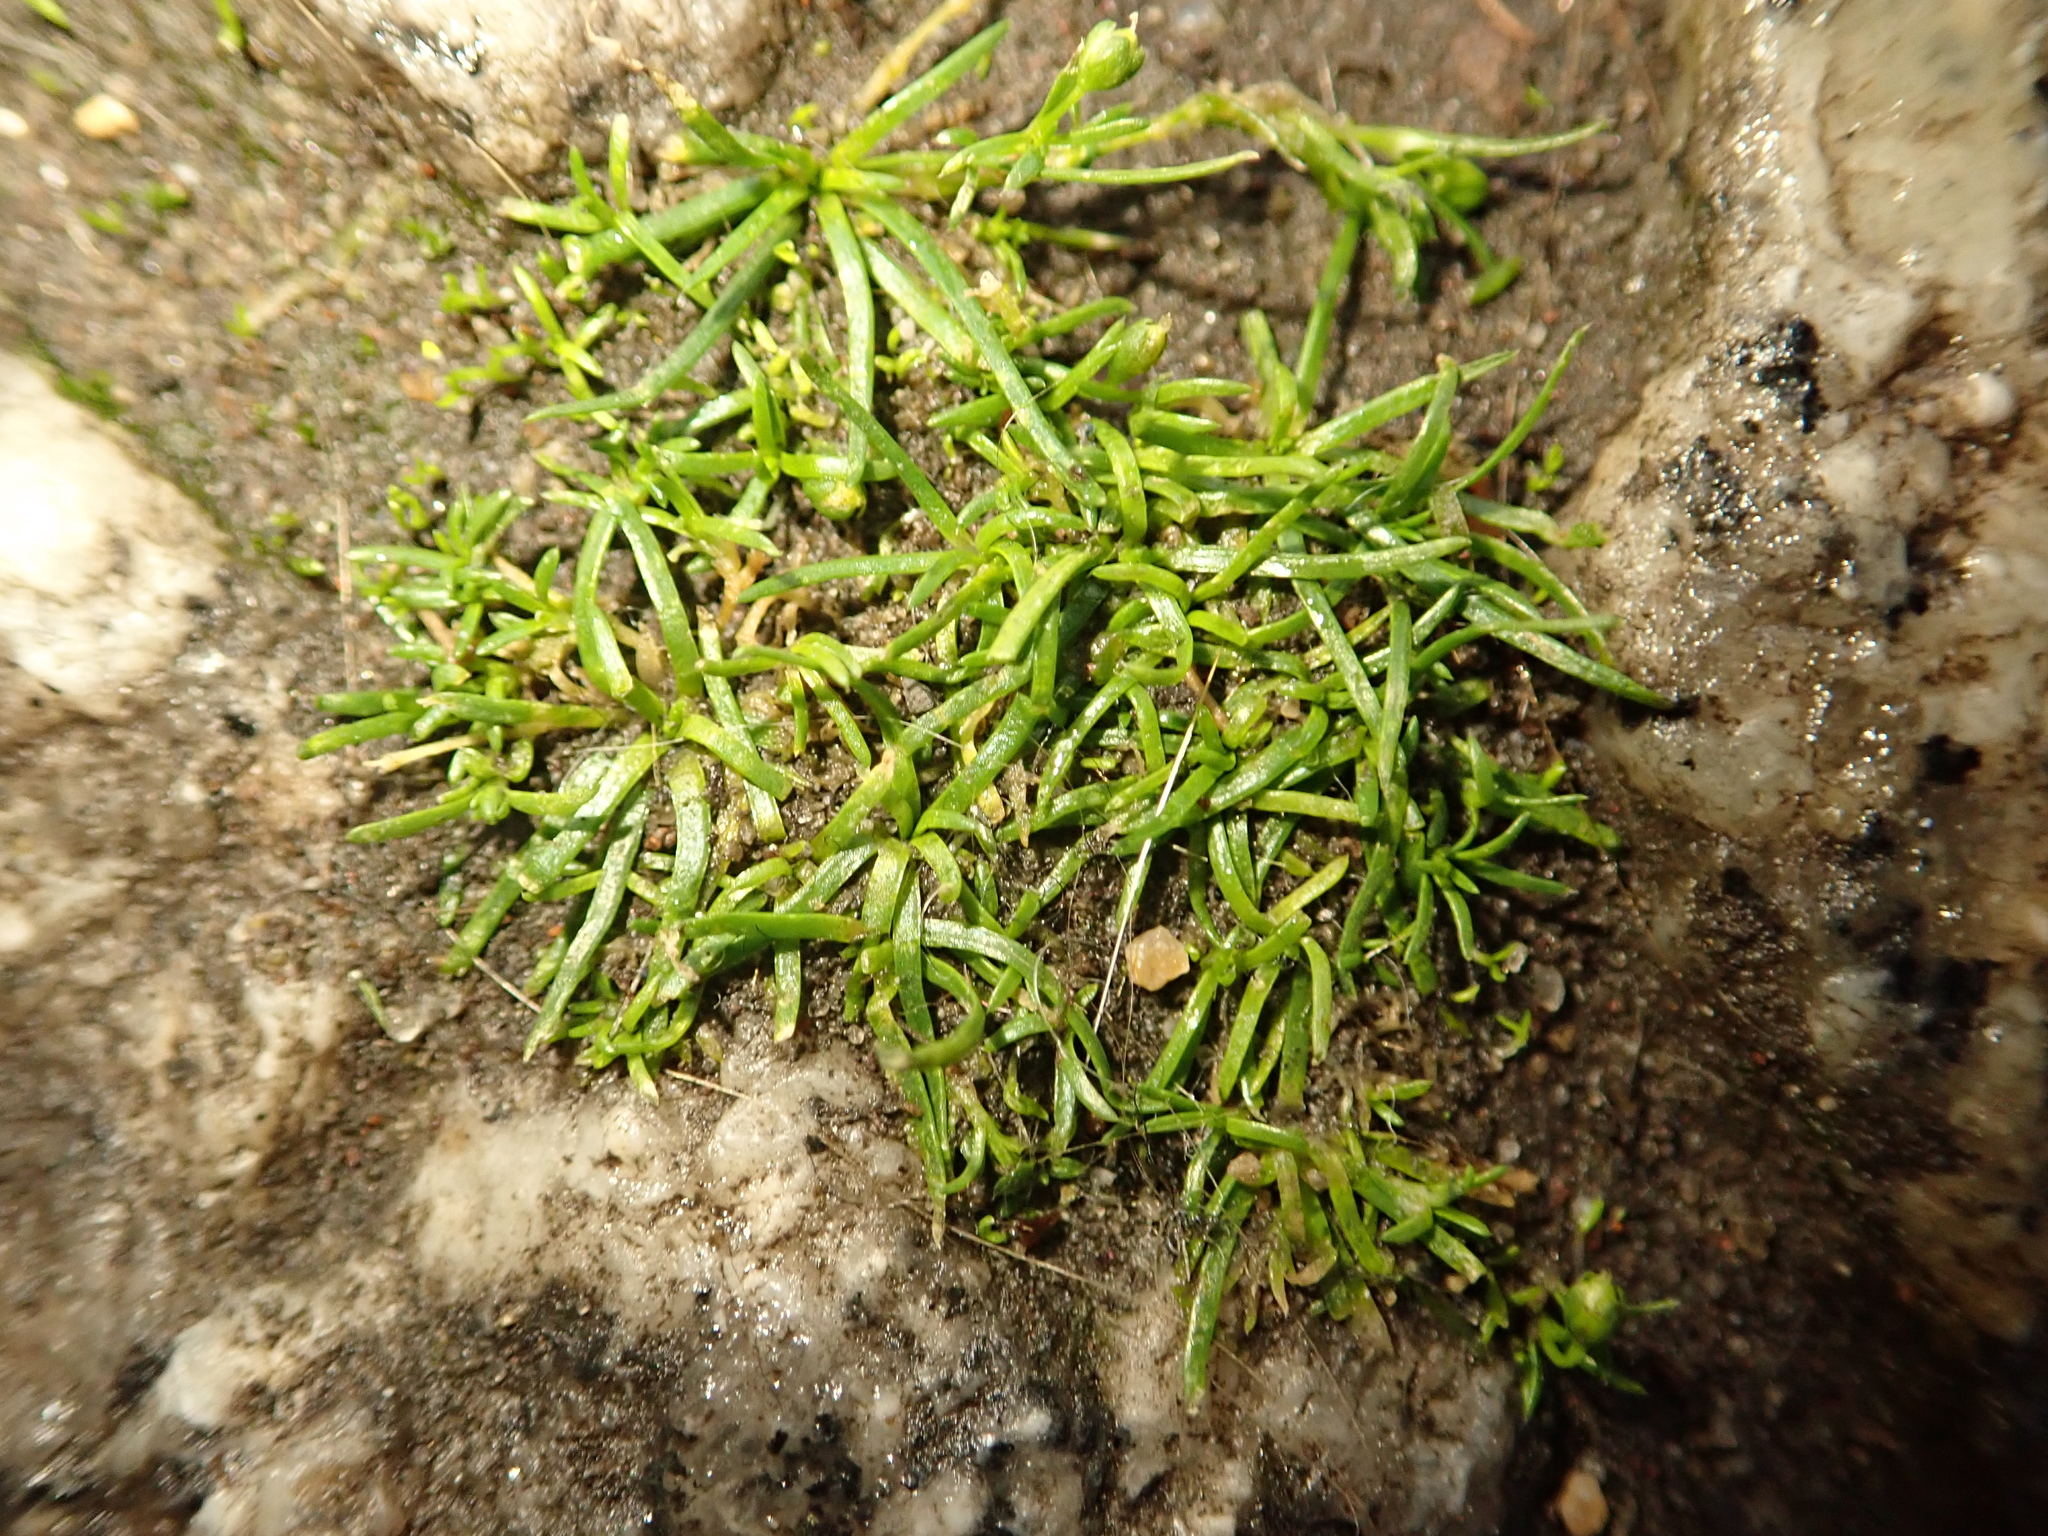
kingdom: Plantae
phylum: Tracheophyta
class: Magnoliopsida
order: Caryophyllales
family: Caryophyllaceae
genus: Sagina
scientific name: Sagina procumbens
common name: Procumbent pearlwort
